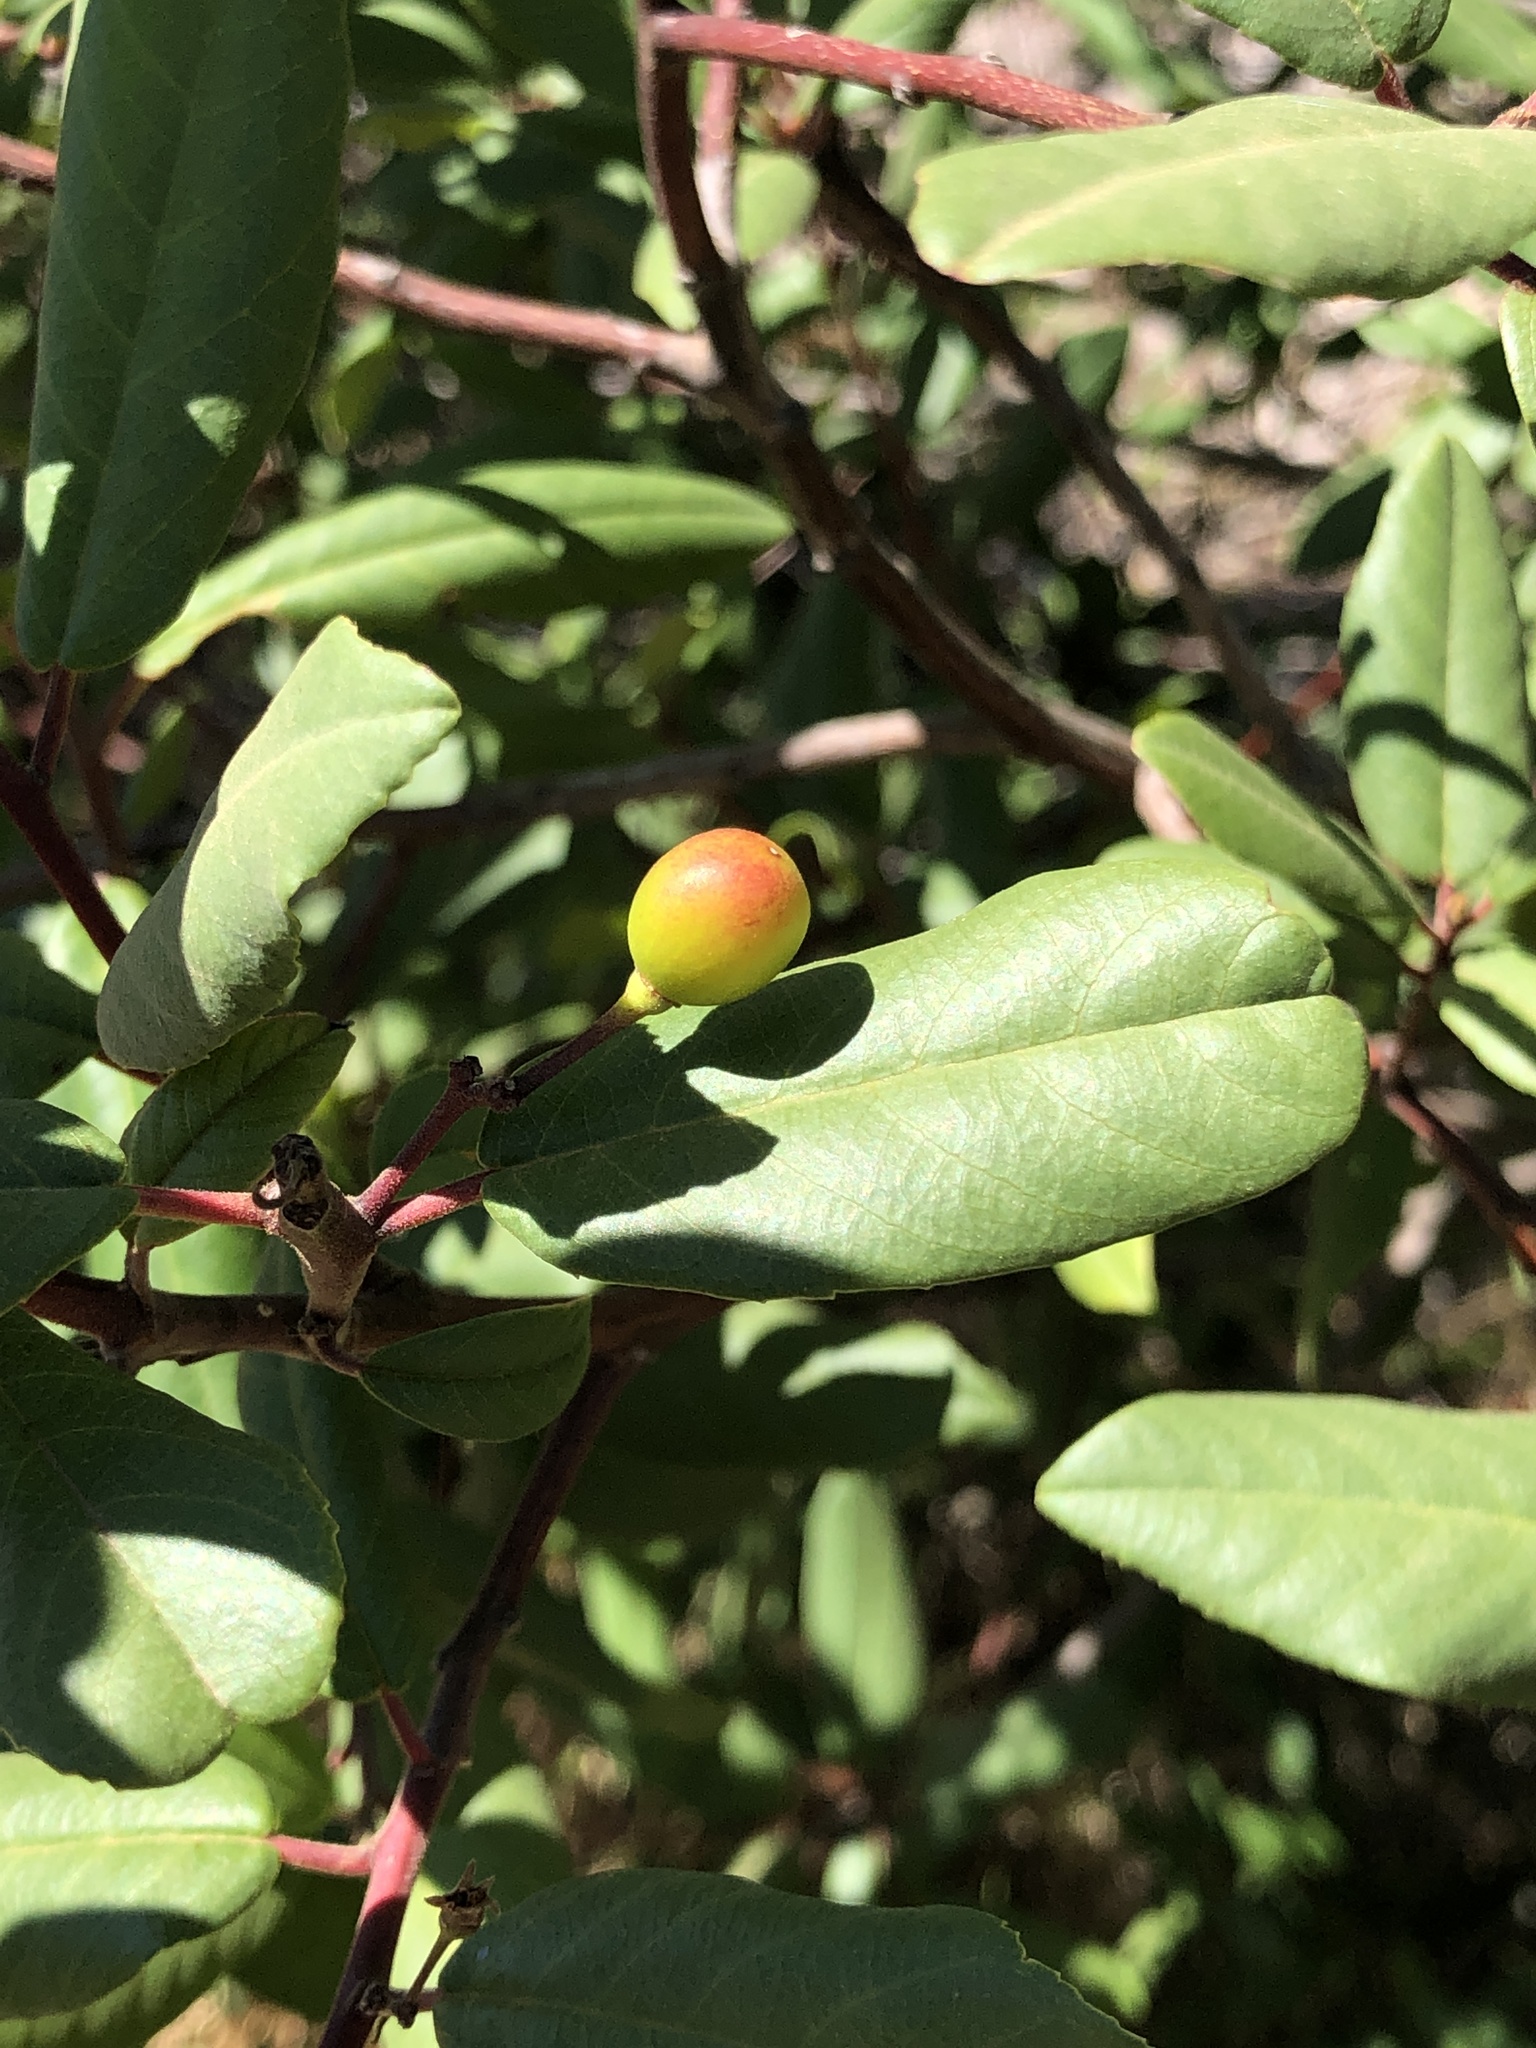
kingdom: Plantae
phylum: Tracheophyta
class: Magnoliopsida
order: Rosales
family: Rhamnaceae
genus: Frangula
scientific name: Frangula californica
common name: California buckthorn
